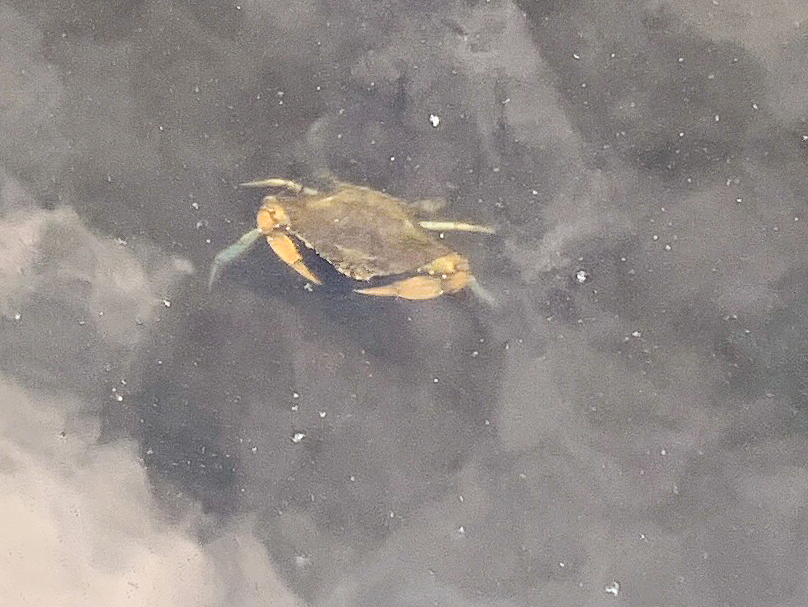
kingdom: Animalia
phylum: Arthropoda
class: Malacostraca
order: Decapoda
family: Portunidae
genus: Callinectes
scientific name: Callinectes sapidus
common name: Blue crab
